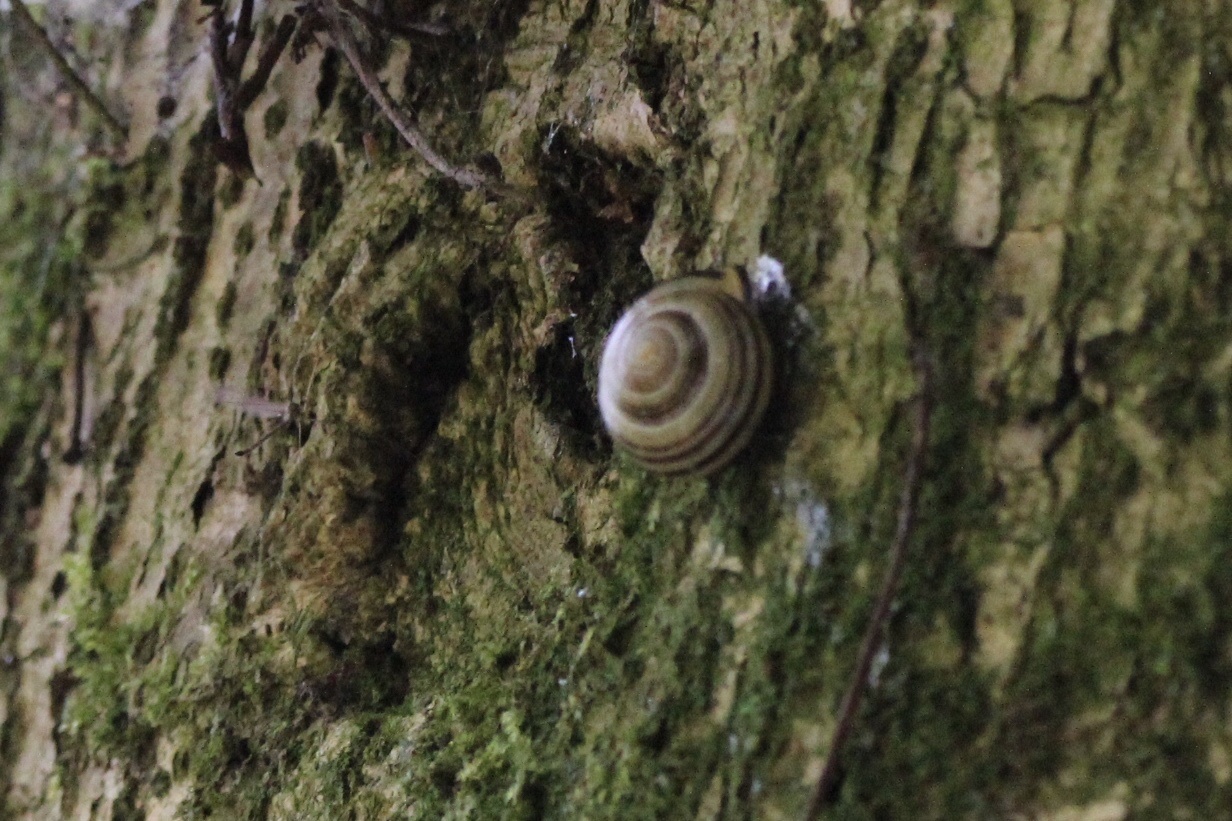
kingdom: Animalia
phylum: Mollusca
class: Gastropoda
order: Stylommatophora
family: Helicidae
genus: Cepaea
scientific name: Cepaea nemoralis
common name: Grovesnail
